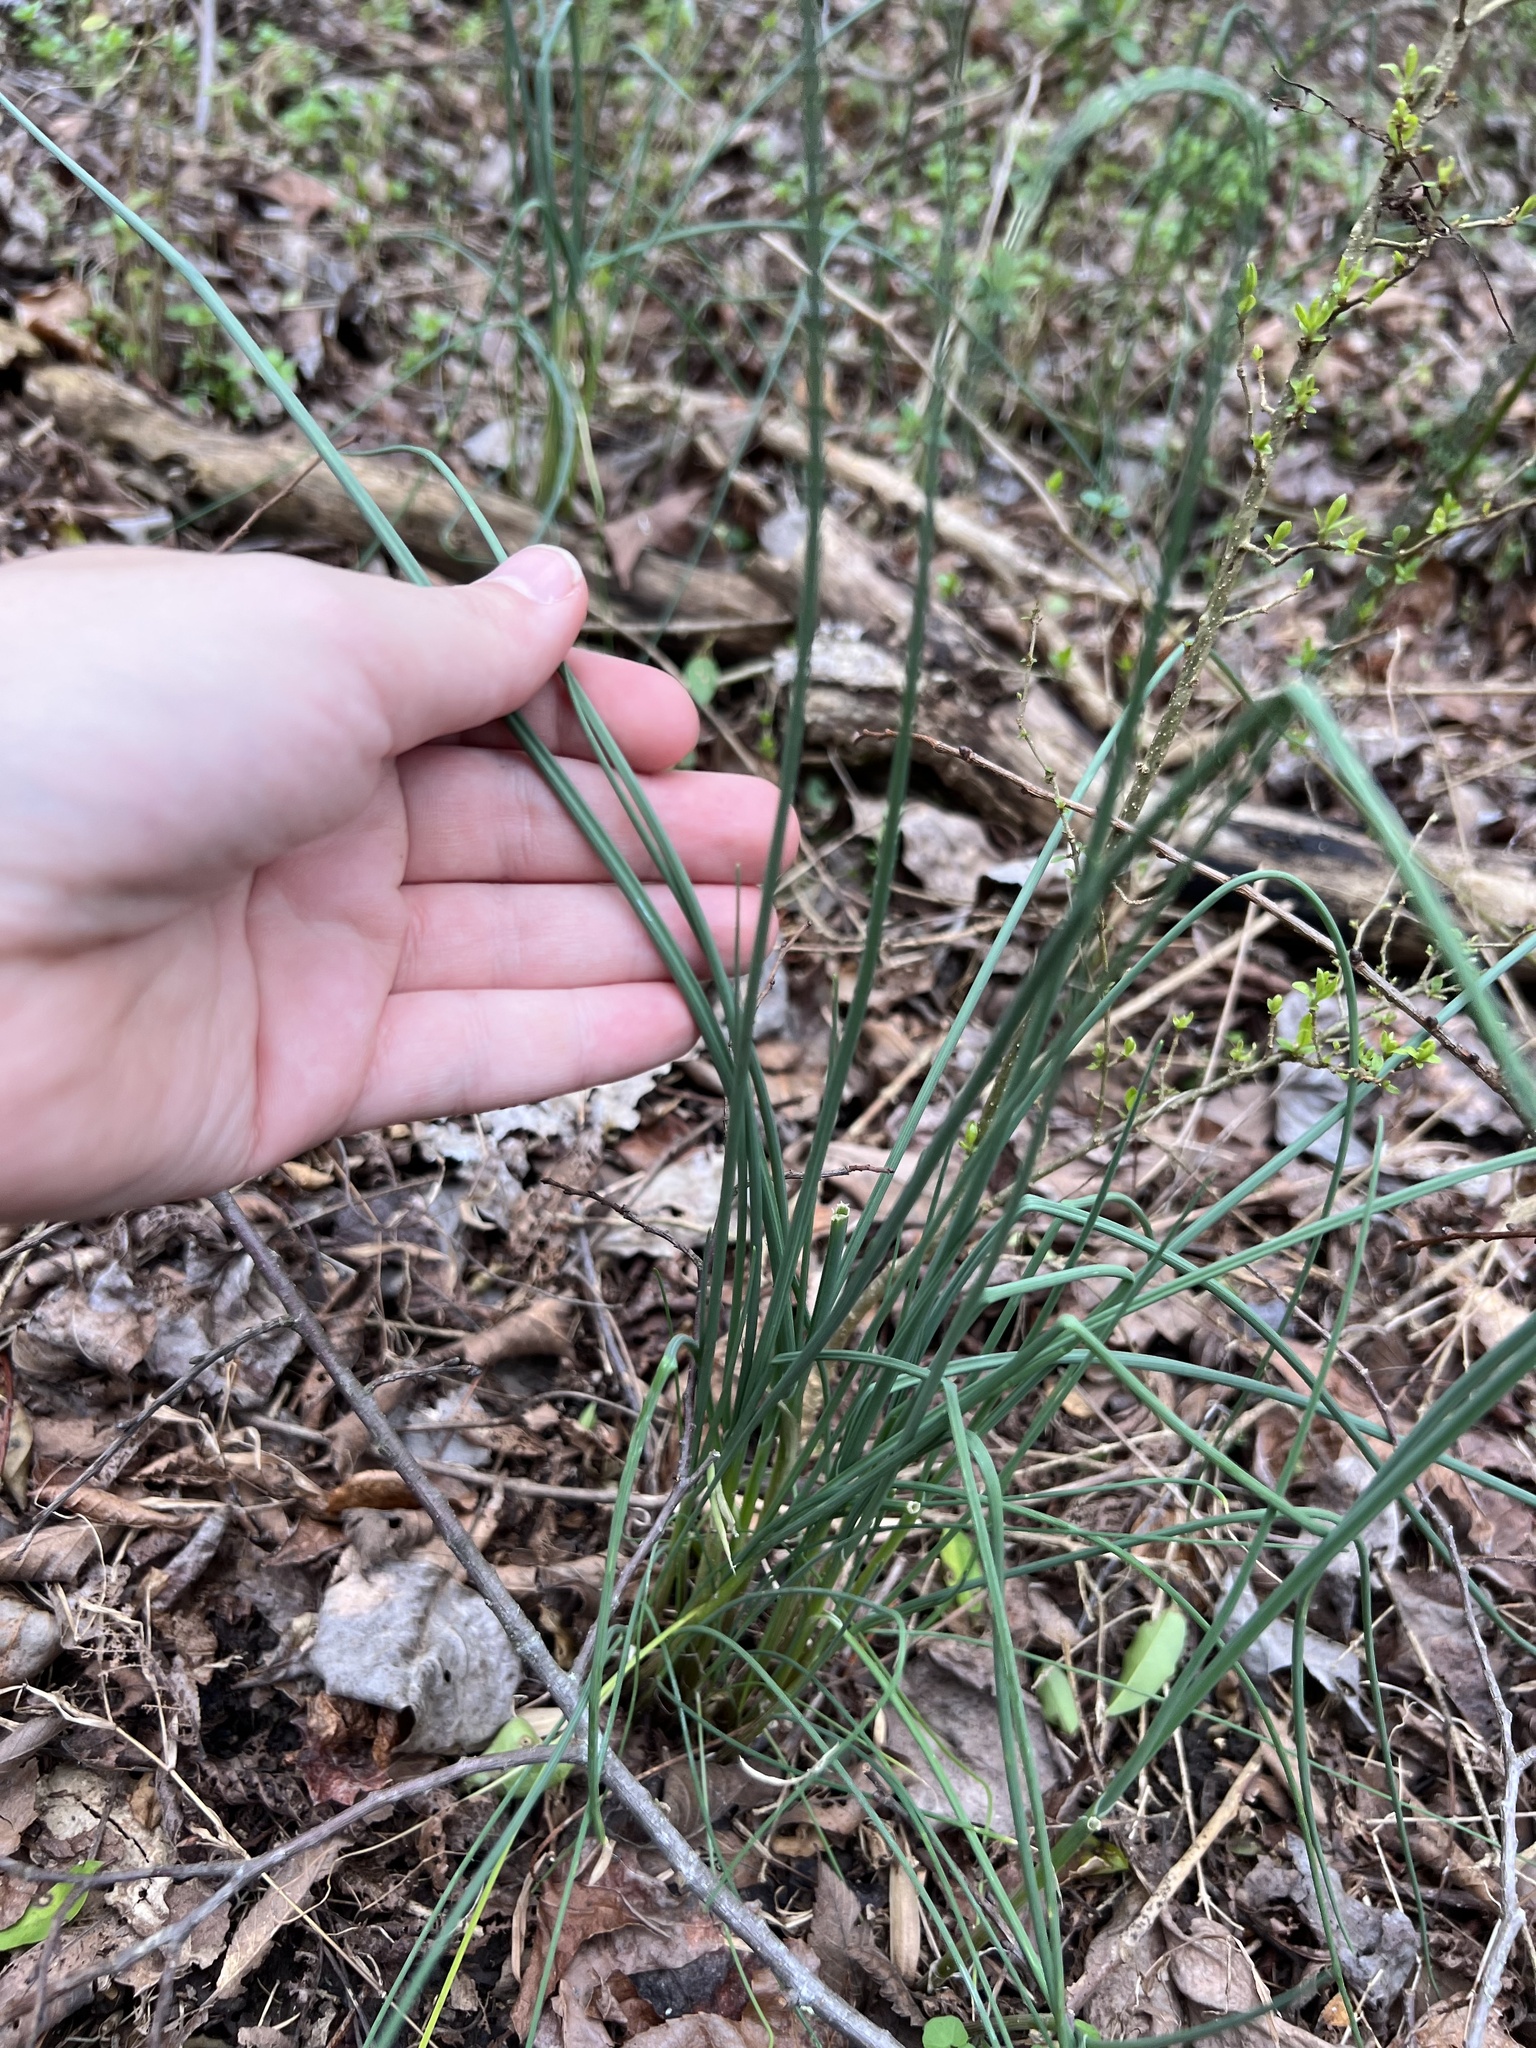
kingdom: Plantae
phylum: Tracheophyta
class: Liliopsida
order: Asparagales
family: Amaryllidaceae
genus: Allium
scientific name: Allium vineale
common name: Crow garlic
